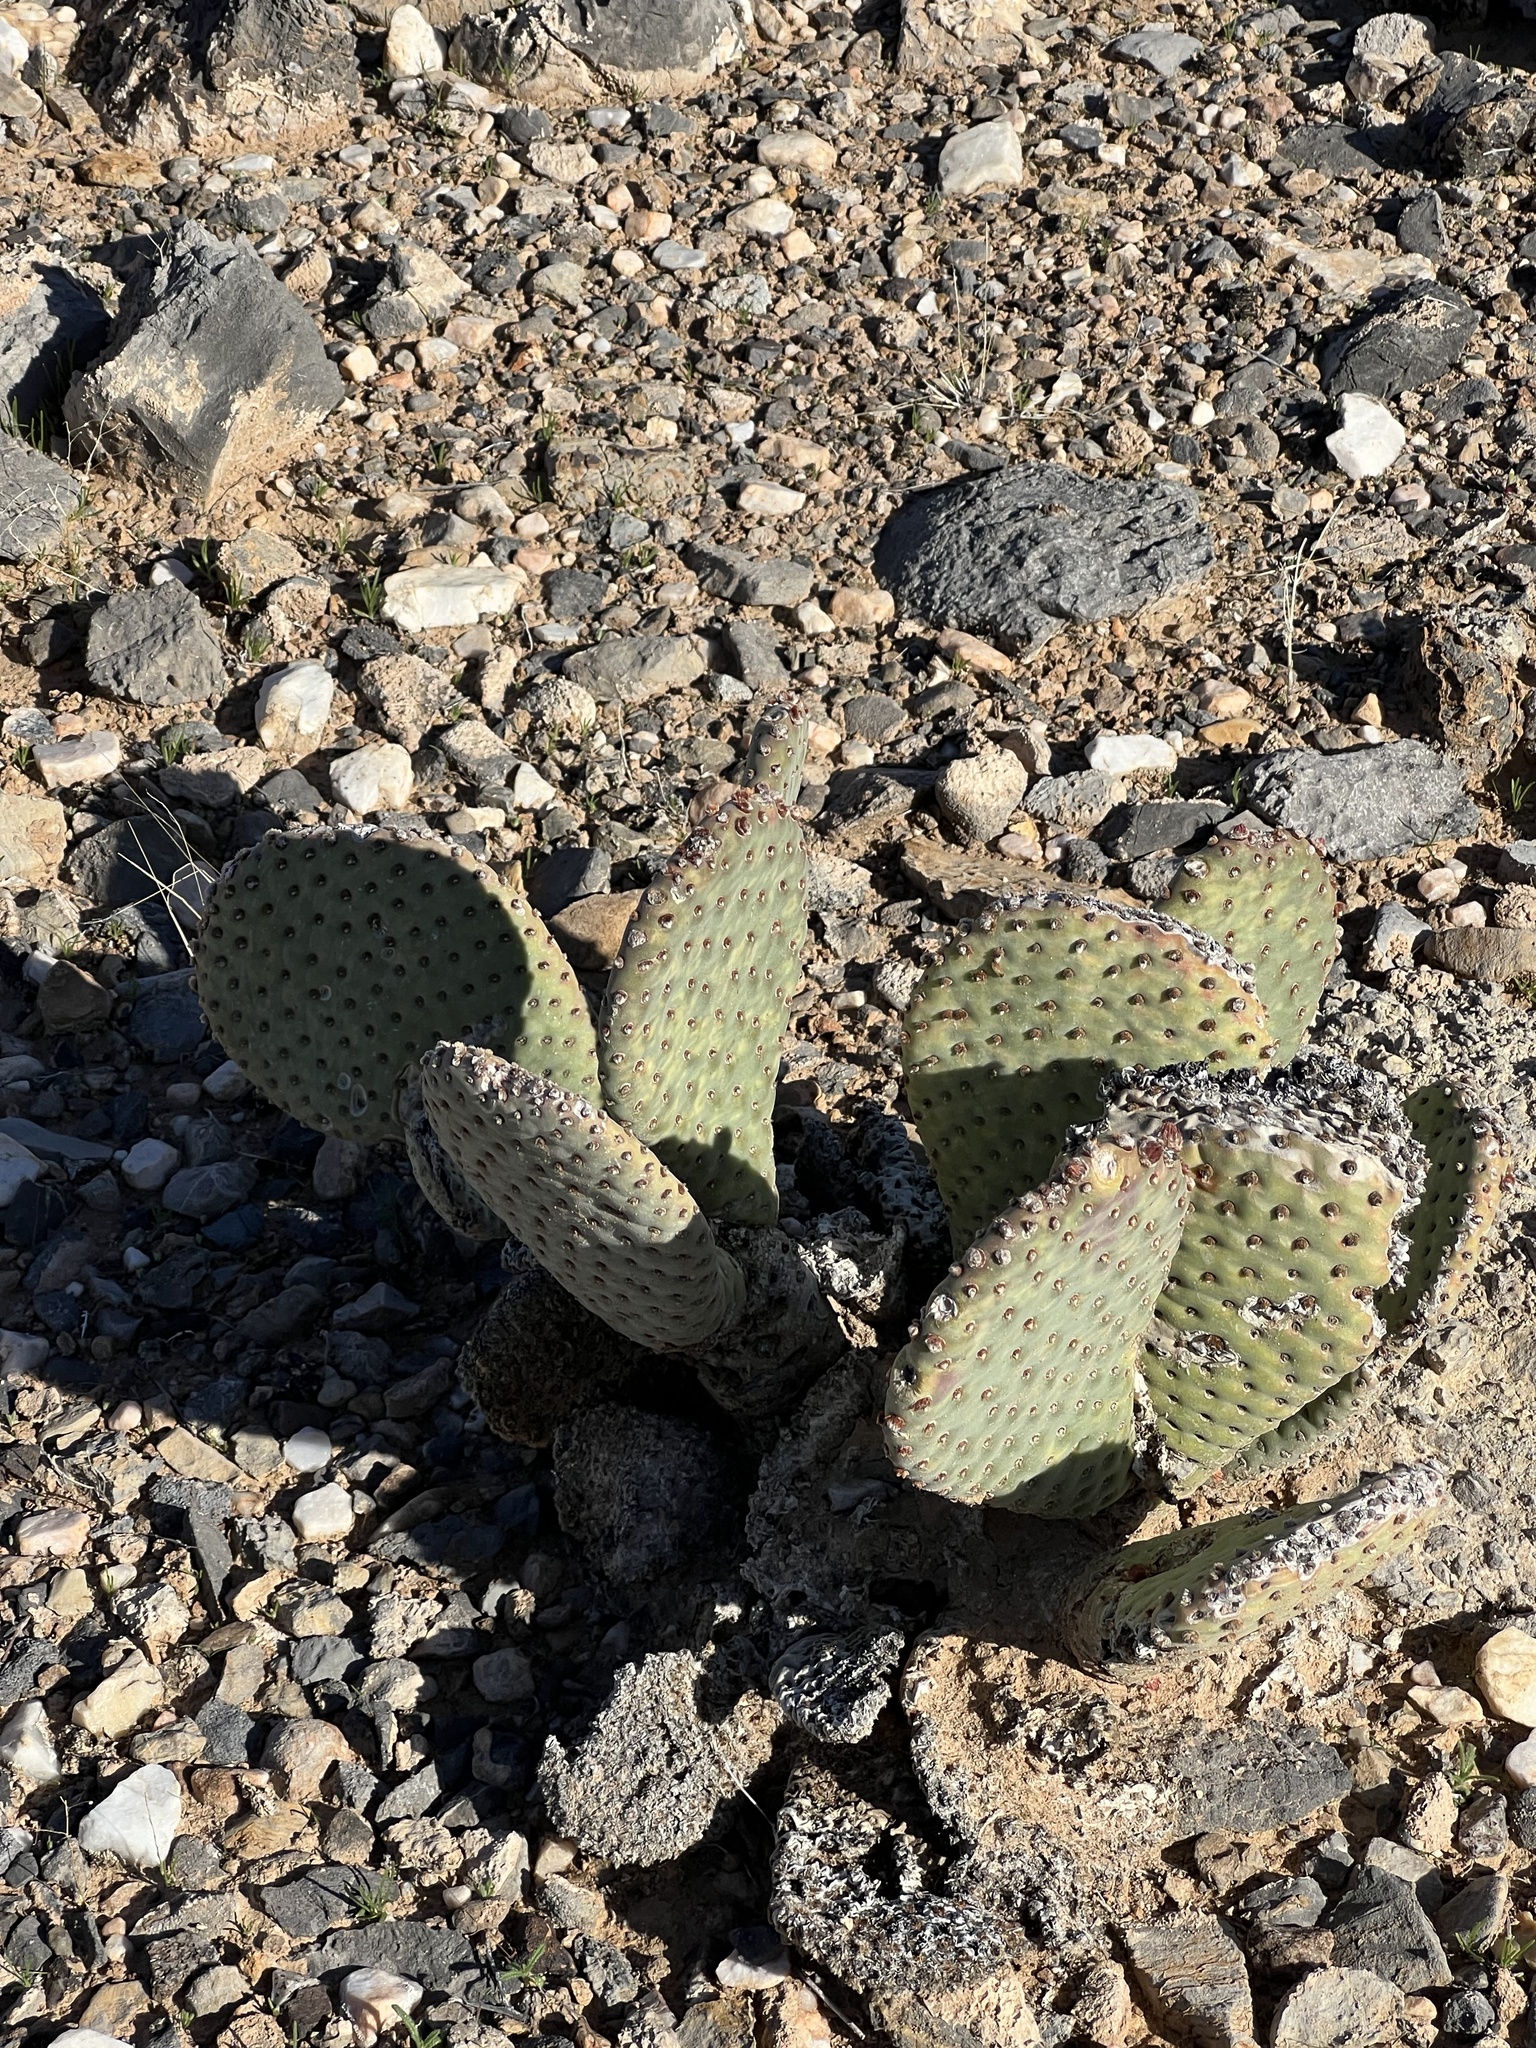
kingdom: Plantae
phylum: Tracheophyta
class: Magnoliopsida
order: Caryophyllales
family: Cactaceae
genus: Opuntia
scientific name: Opuntia basilaris
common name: Beavertail prickly-pear
